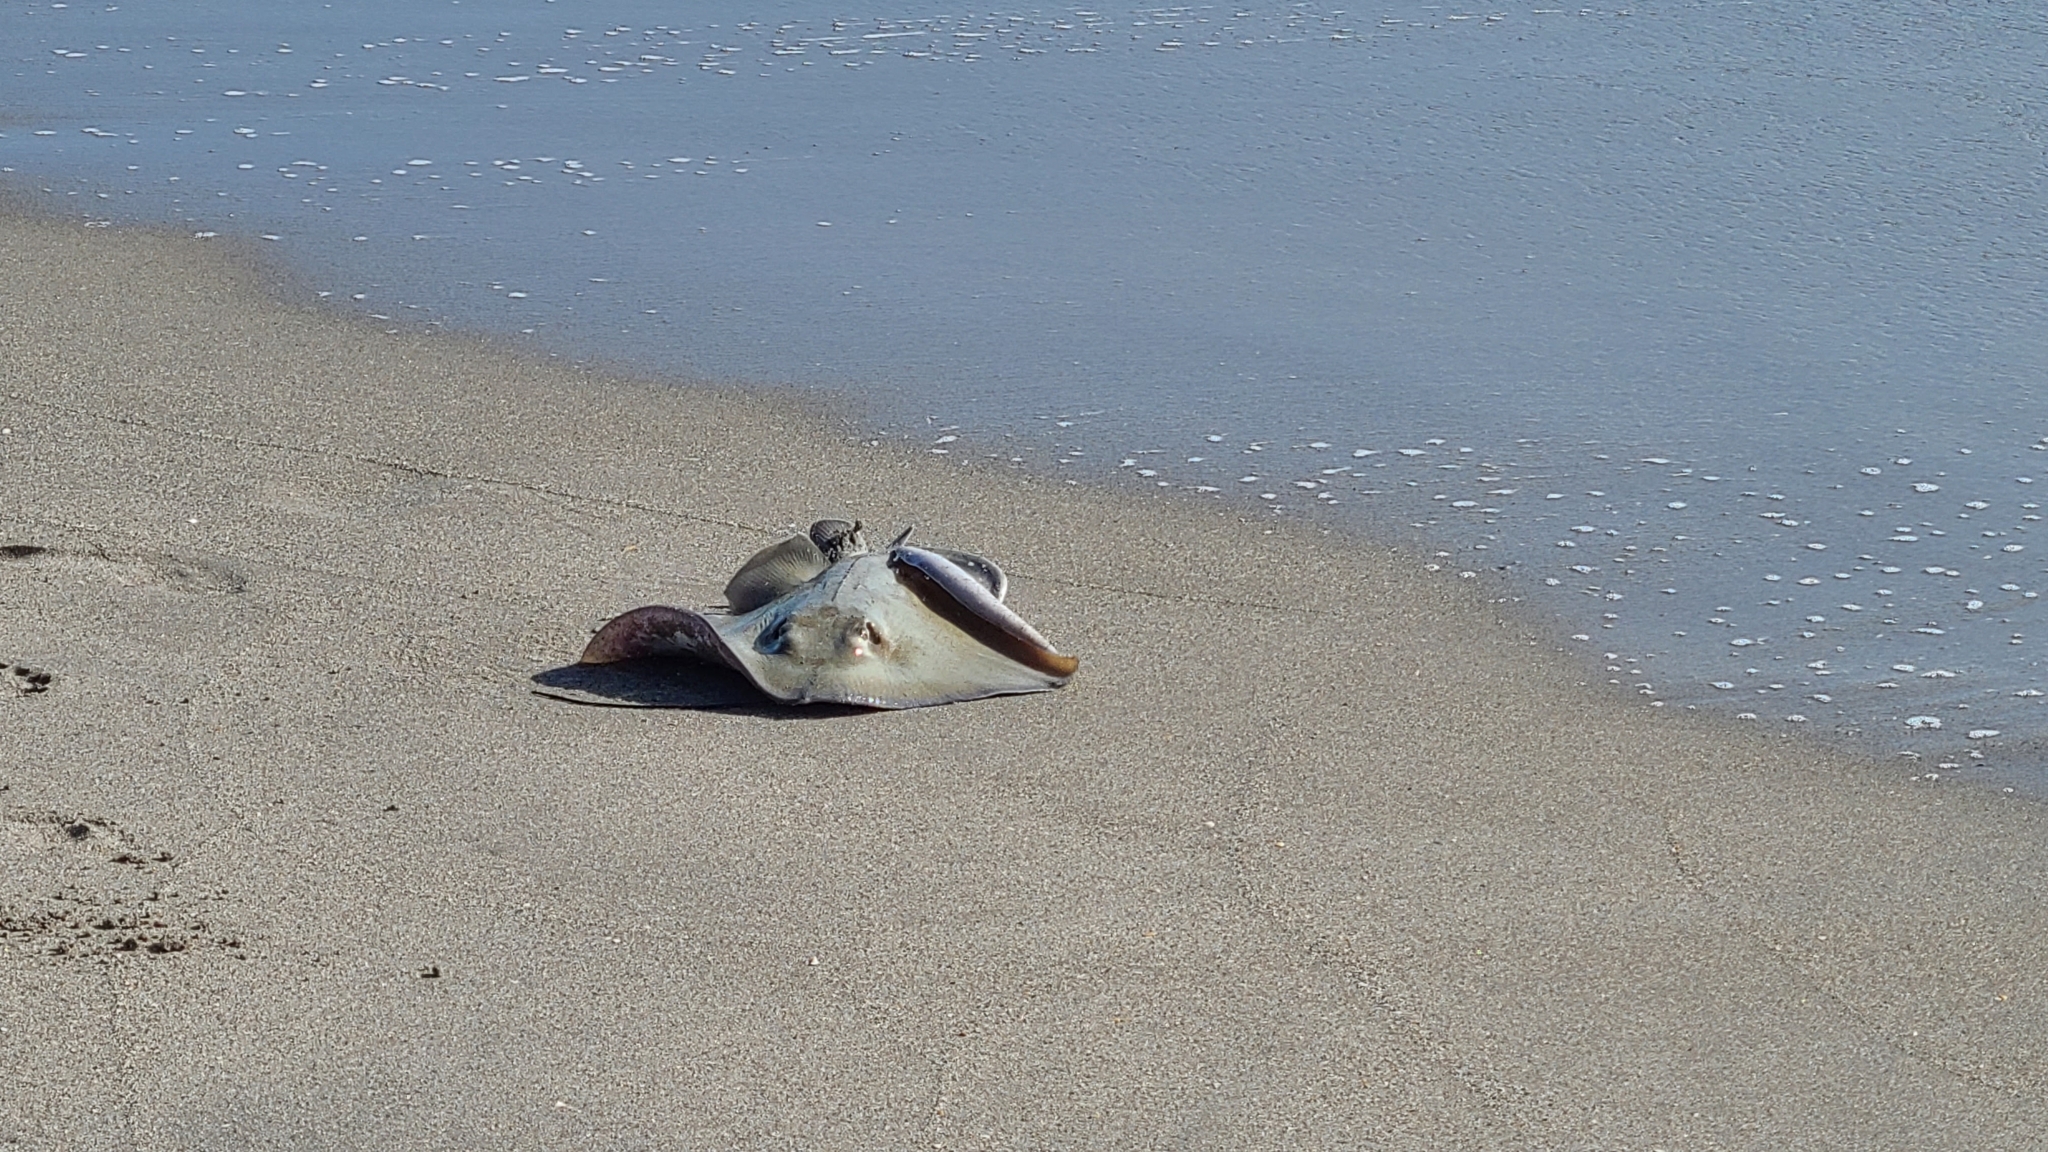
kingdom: Animalia
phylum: Chordata
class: Elasmobranchii
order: Myliobatiformes
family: Dasyatidae
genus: Hypanus
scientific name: Hypanus americanus
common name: Southern stingray
